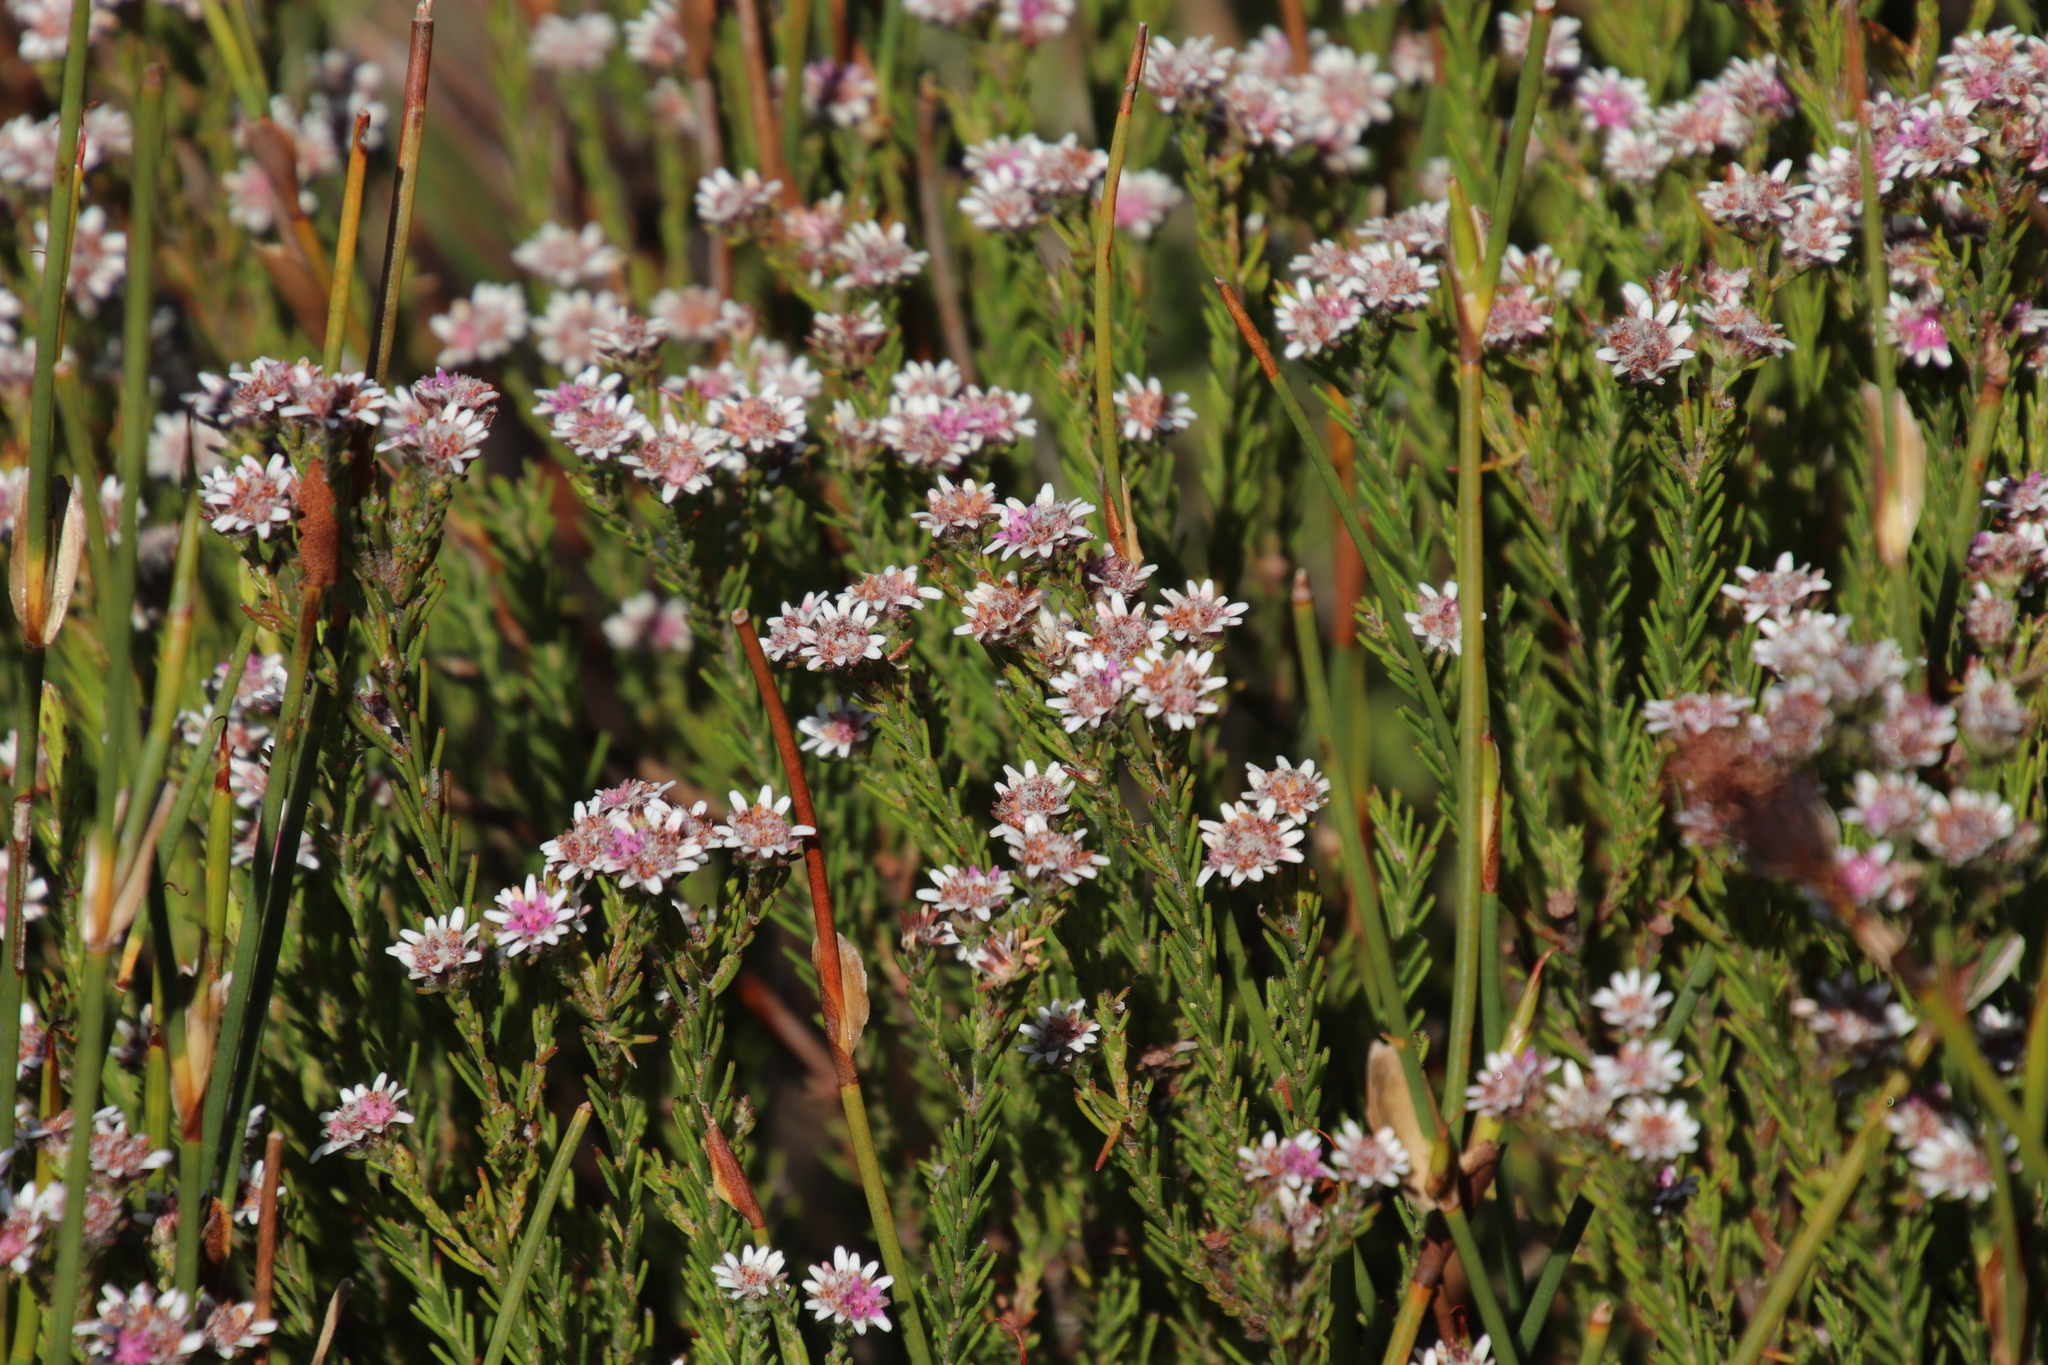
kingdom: Plantae
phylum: Tracheophyta
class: Magnoliopsida
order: Bruniales
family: Bruniaceae
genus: Staavia
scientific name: Staavia radiata
